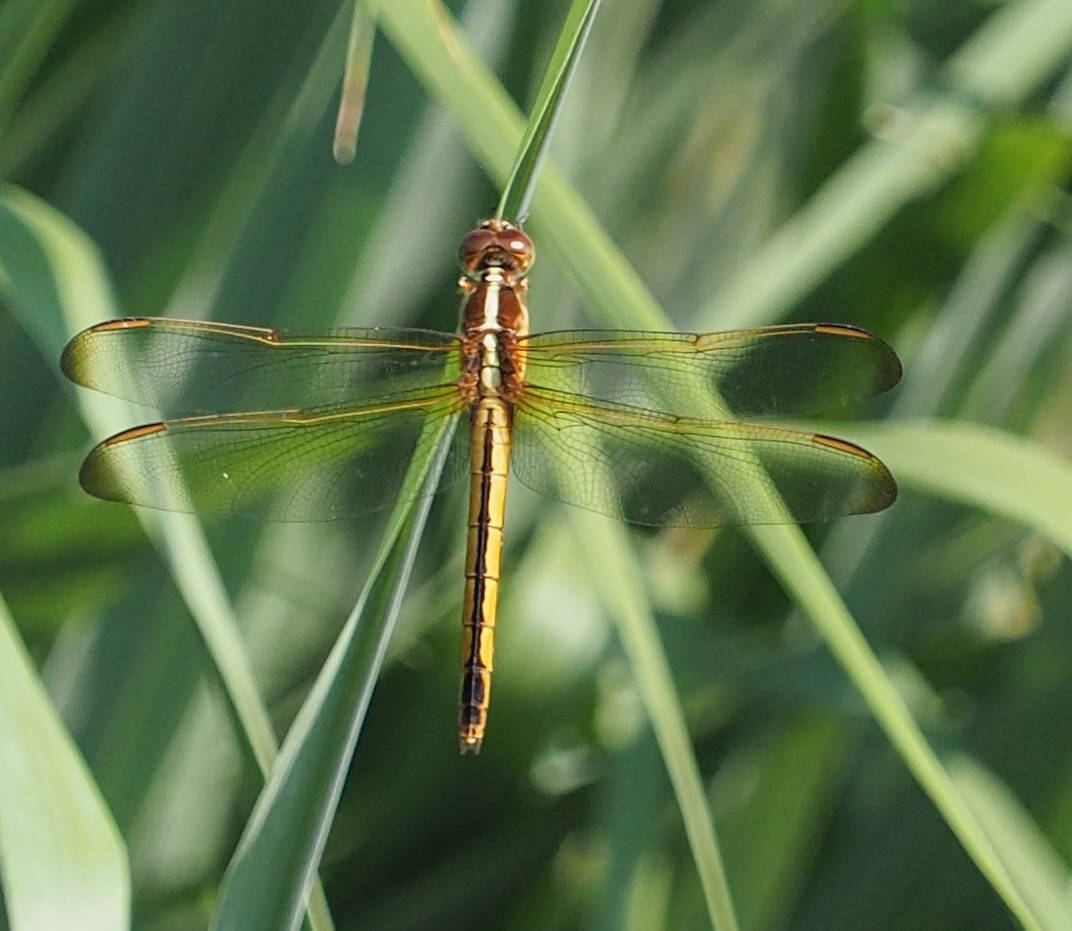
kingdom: Animalia
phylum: Arthropoda
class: Insecta
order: Odonata
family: Libellulidae
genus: Libellula
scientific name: Libellula needhami
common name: Needham's skimmer
